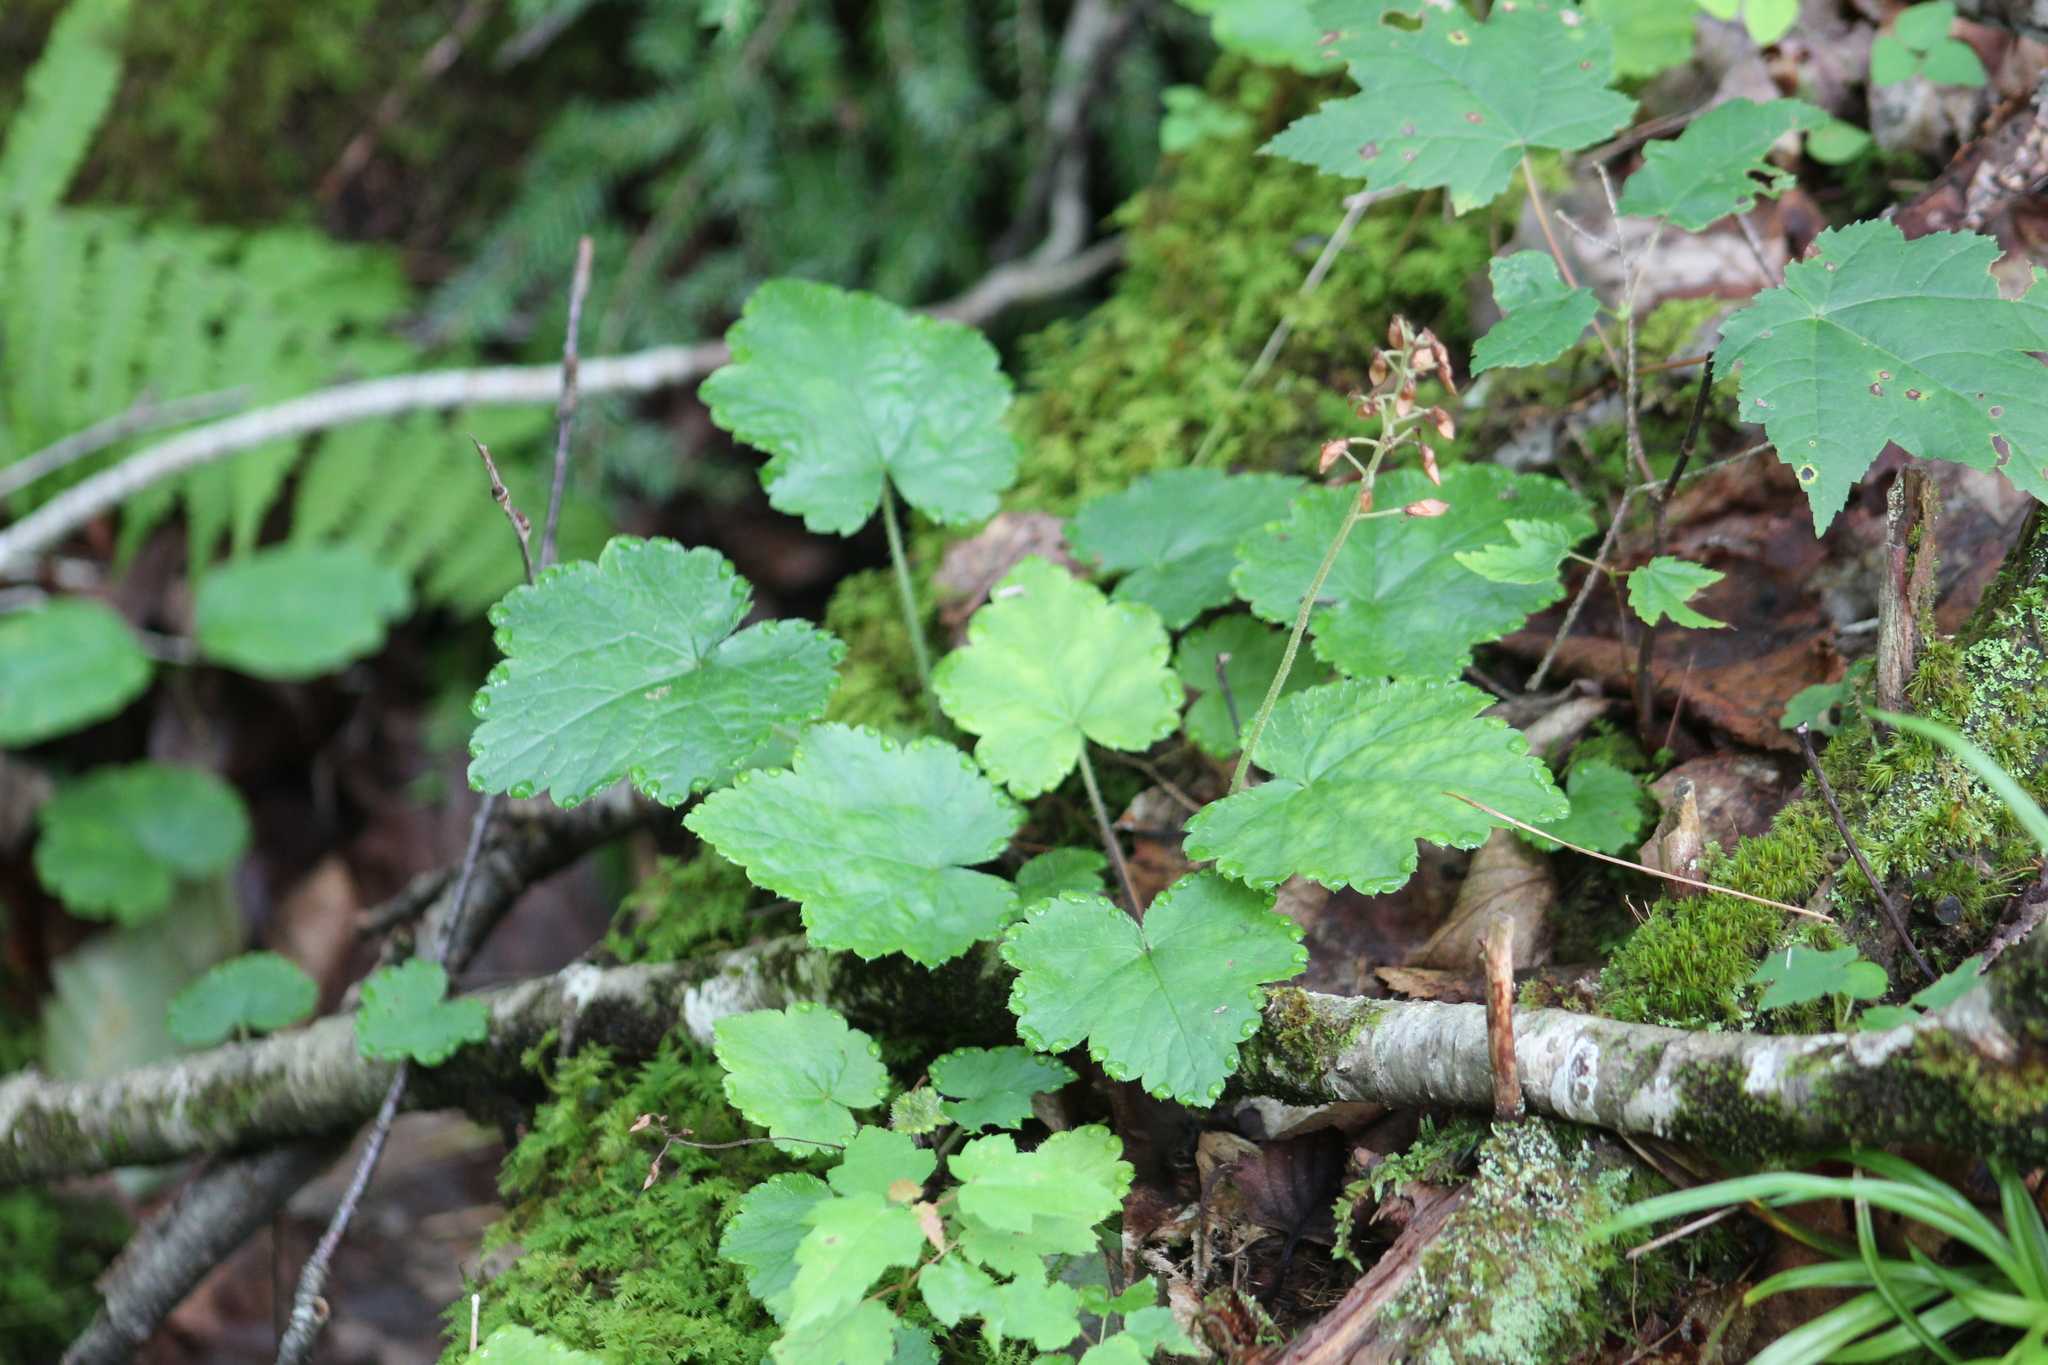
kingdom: Plantae
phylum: Tracheophyta
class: Magnoliopsida
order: Saxifragales
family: Saxifragaceae
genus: Tiarella
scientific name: Tiarella stolonifera
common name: Stoloniferous foamflower
